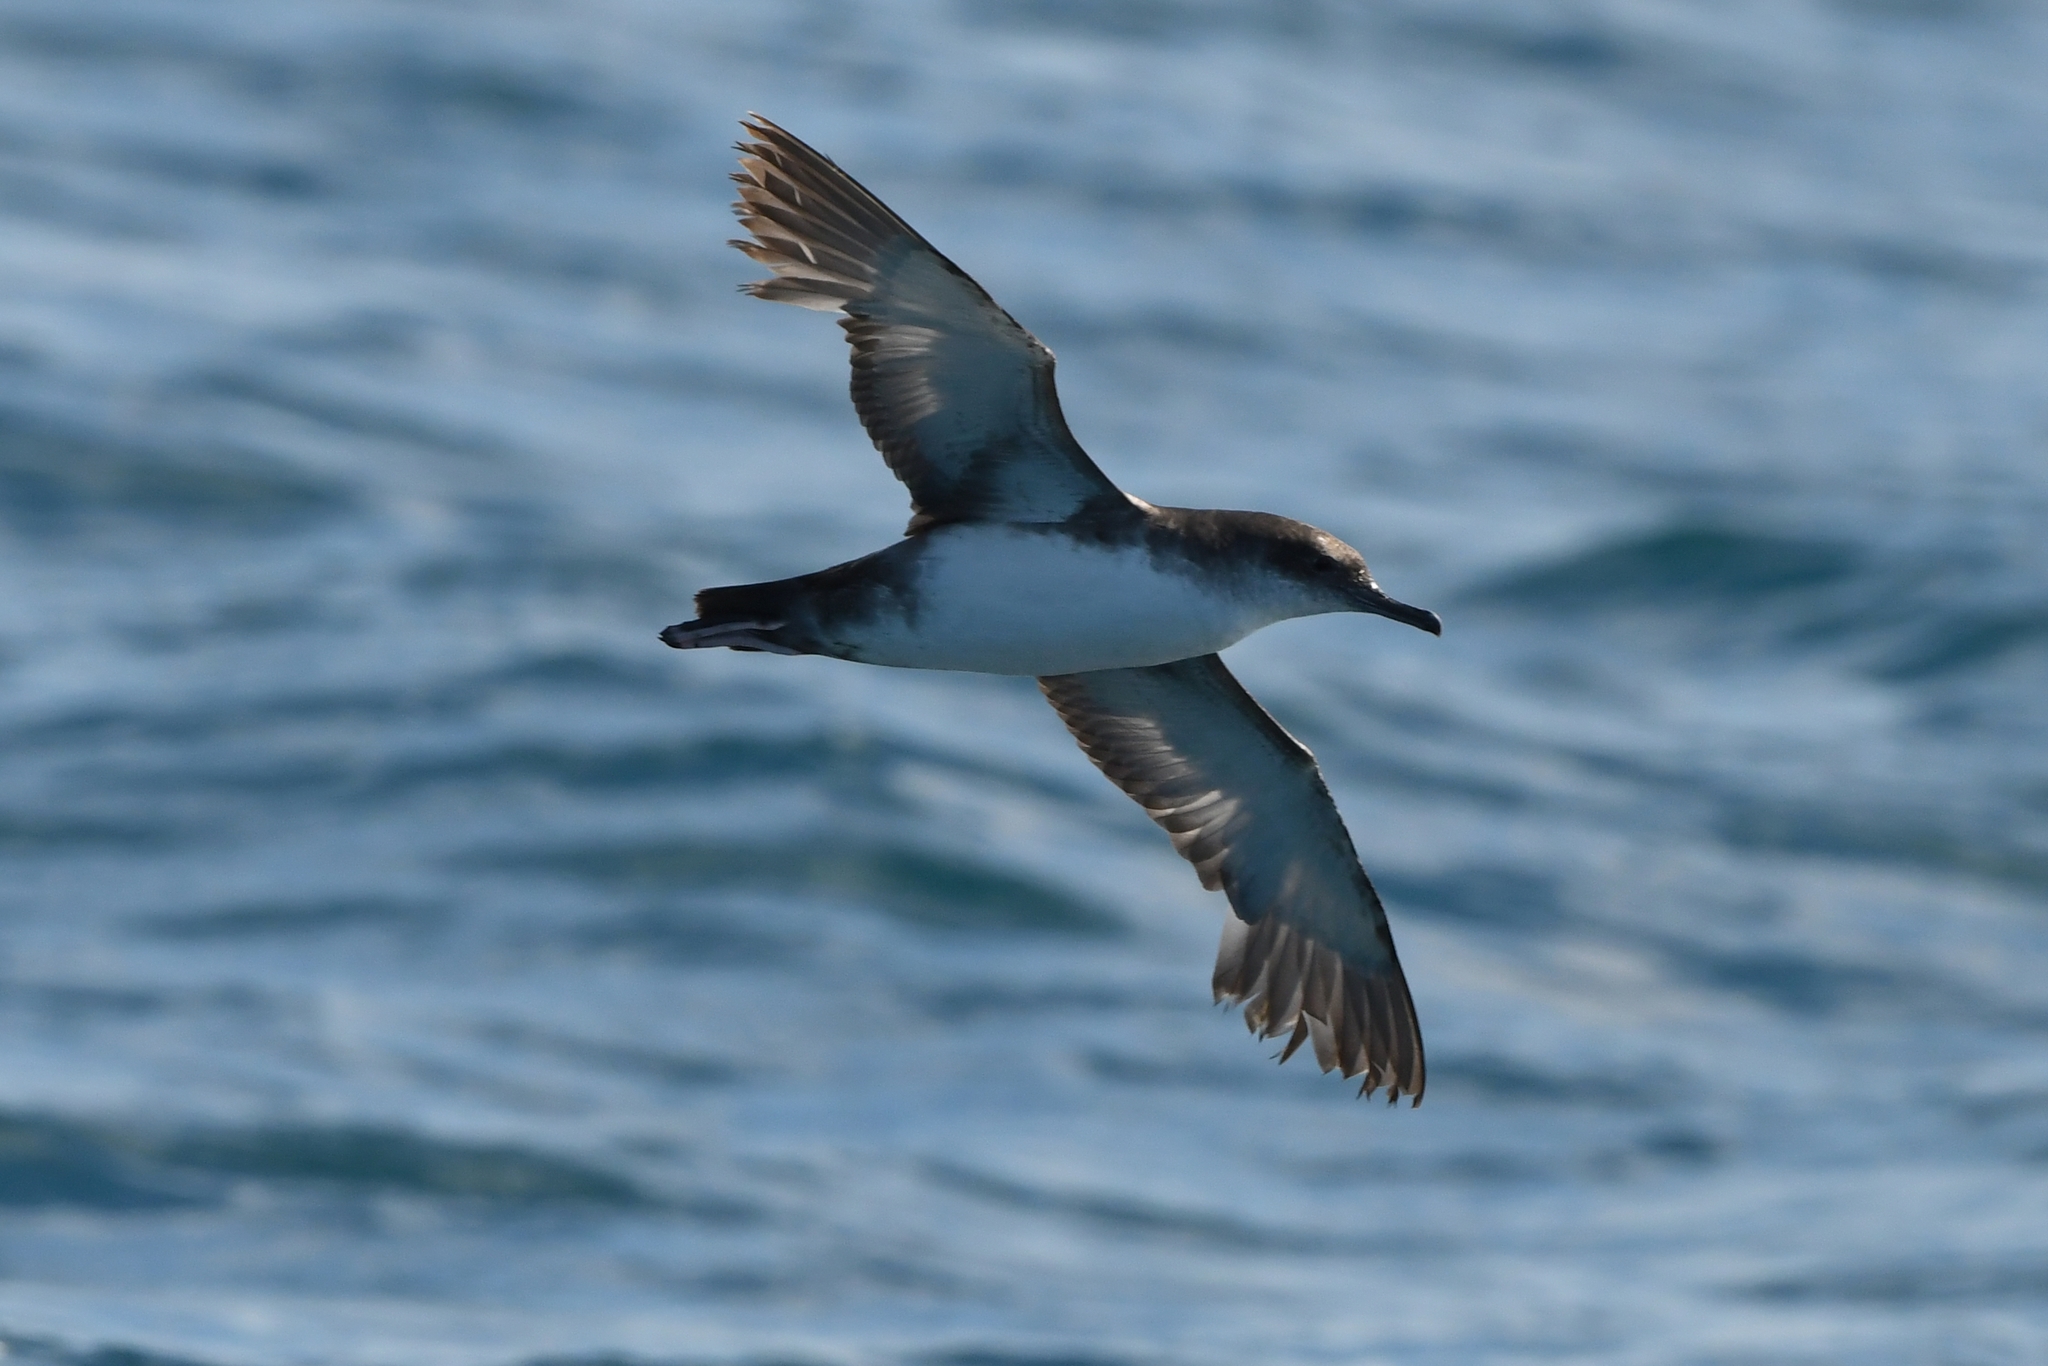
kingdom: Animalia
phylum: Chordata
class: Aves
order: Procellariiformes
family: Procellariidae
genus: Puffinus
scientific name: Puffinus yelkouan
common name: Yelkouan shearwater
